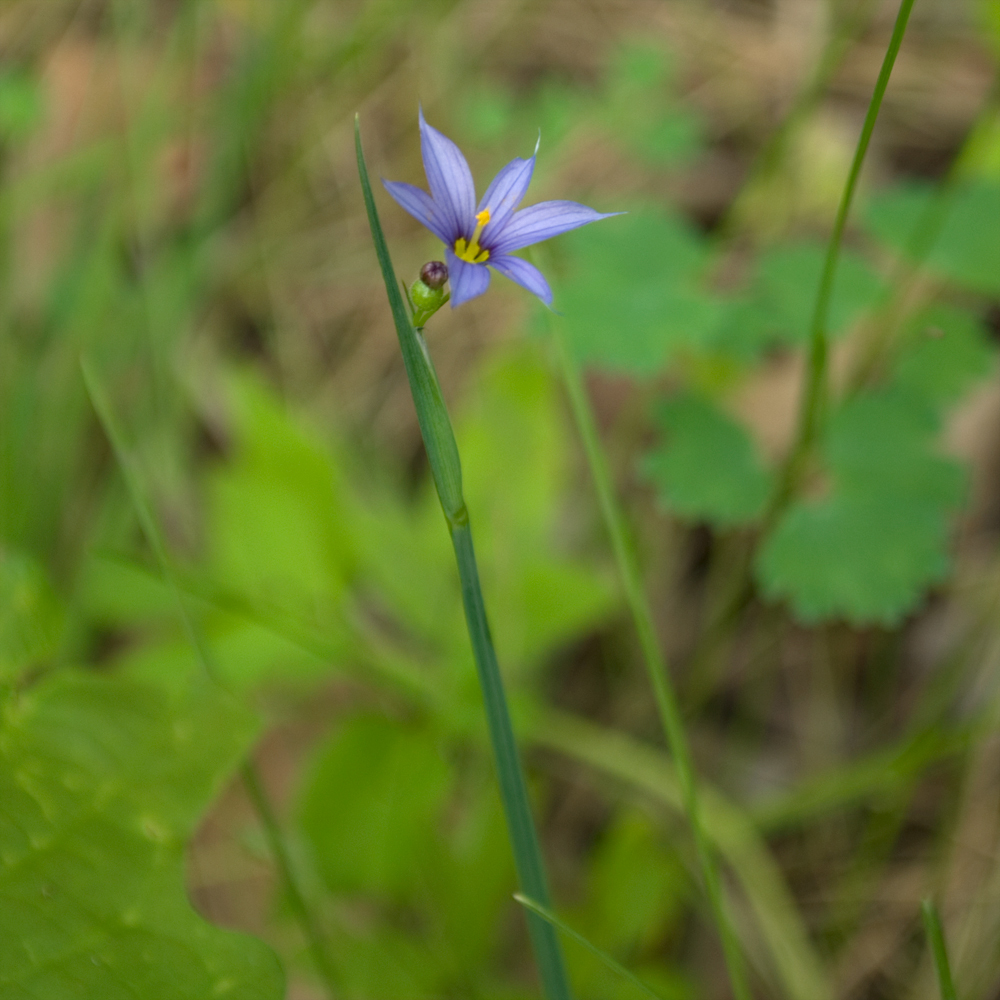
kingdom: Plantae
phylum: Tracheophyta
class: Liliopsida
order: Asparagales
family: Iridaceae
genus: Sisyrinchium
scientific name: Sisyrinchium montanum
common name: American blue-eyed-grass
